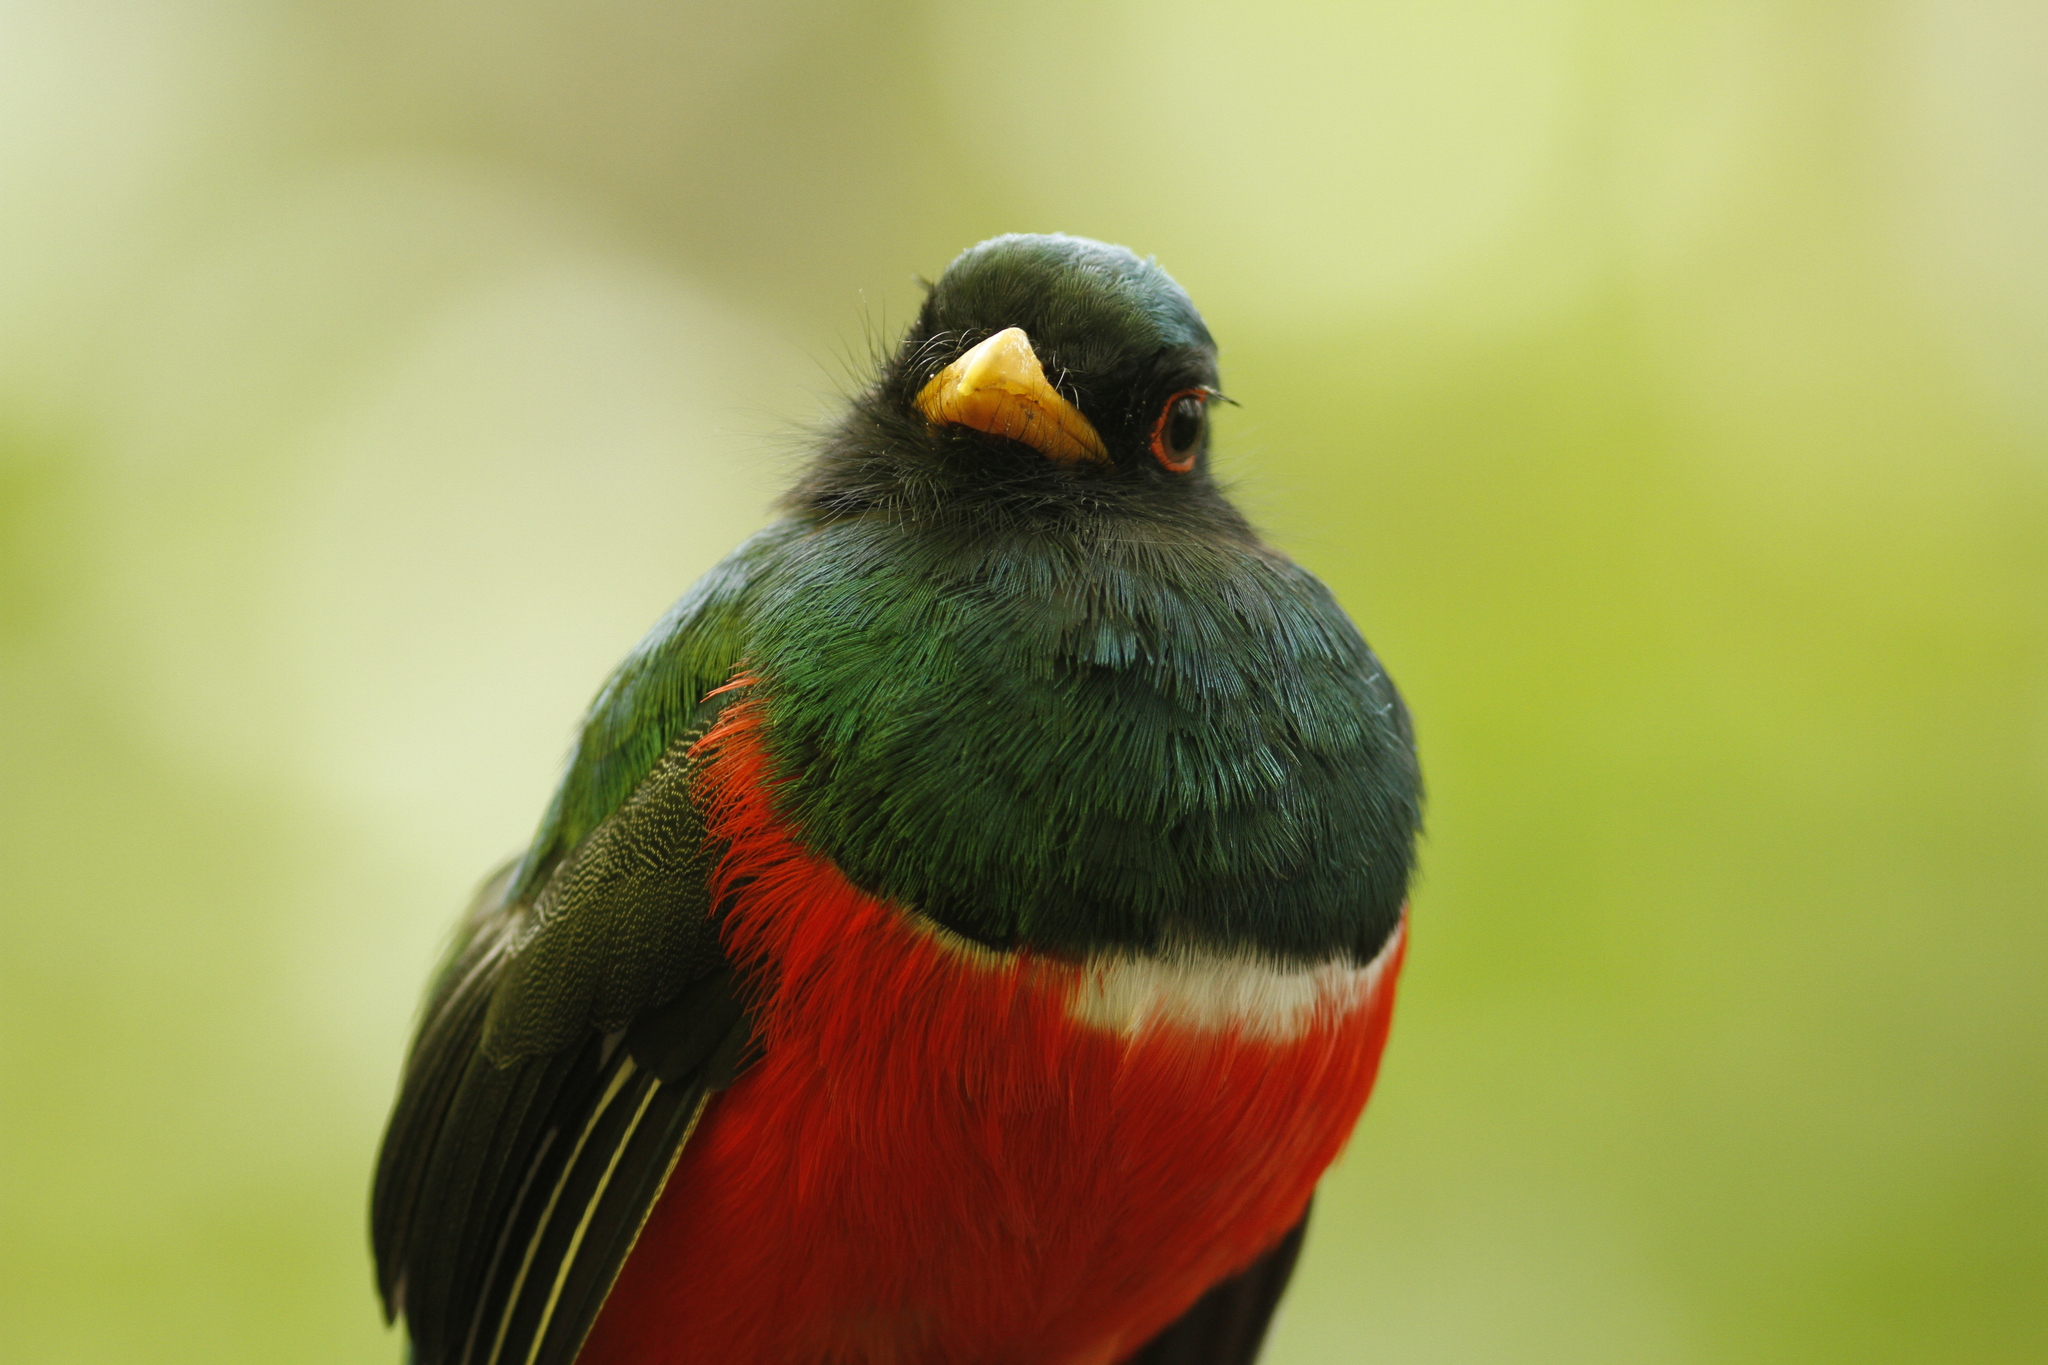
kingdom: Animalia
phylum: Chordata
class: Aves
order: Trogoniformes
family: Trogonidae
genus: Trogon
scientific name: Trogon personatus
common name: Masked trogon
